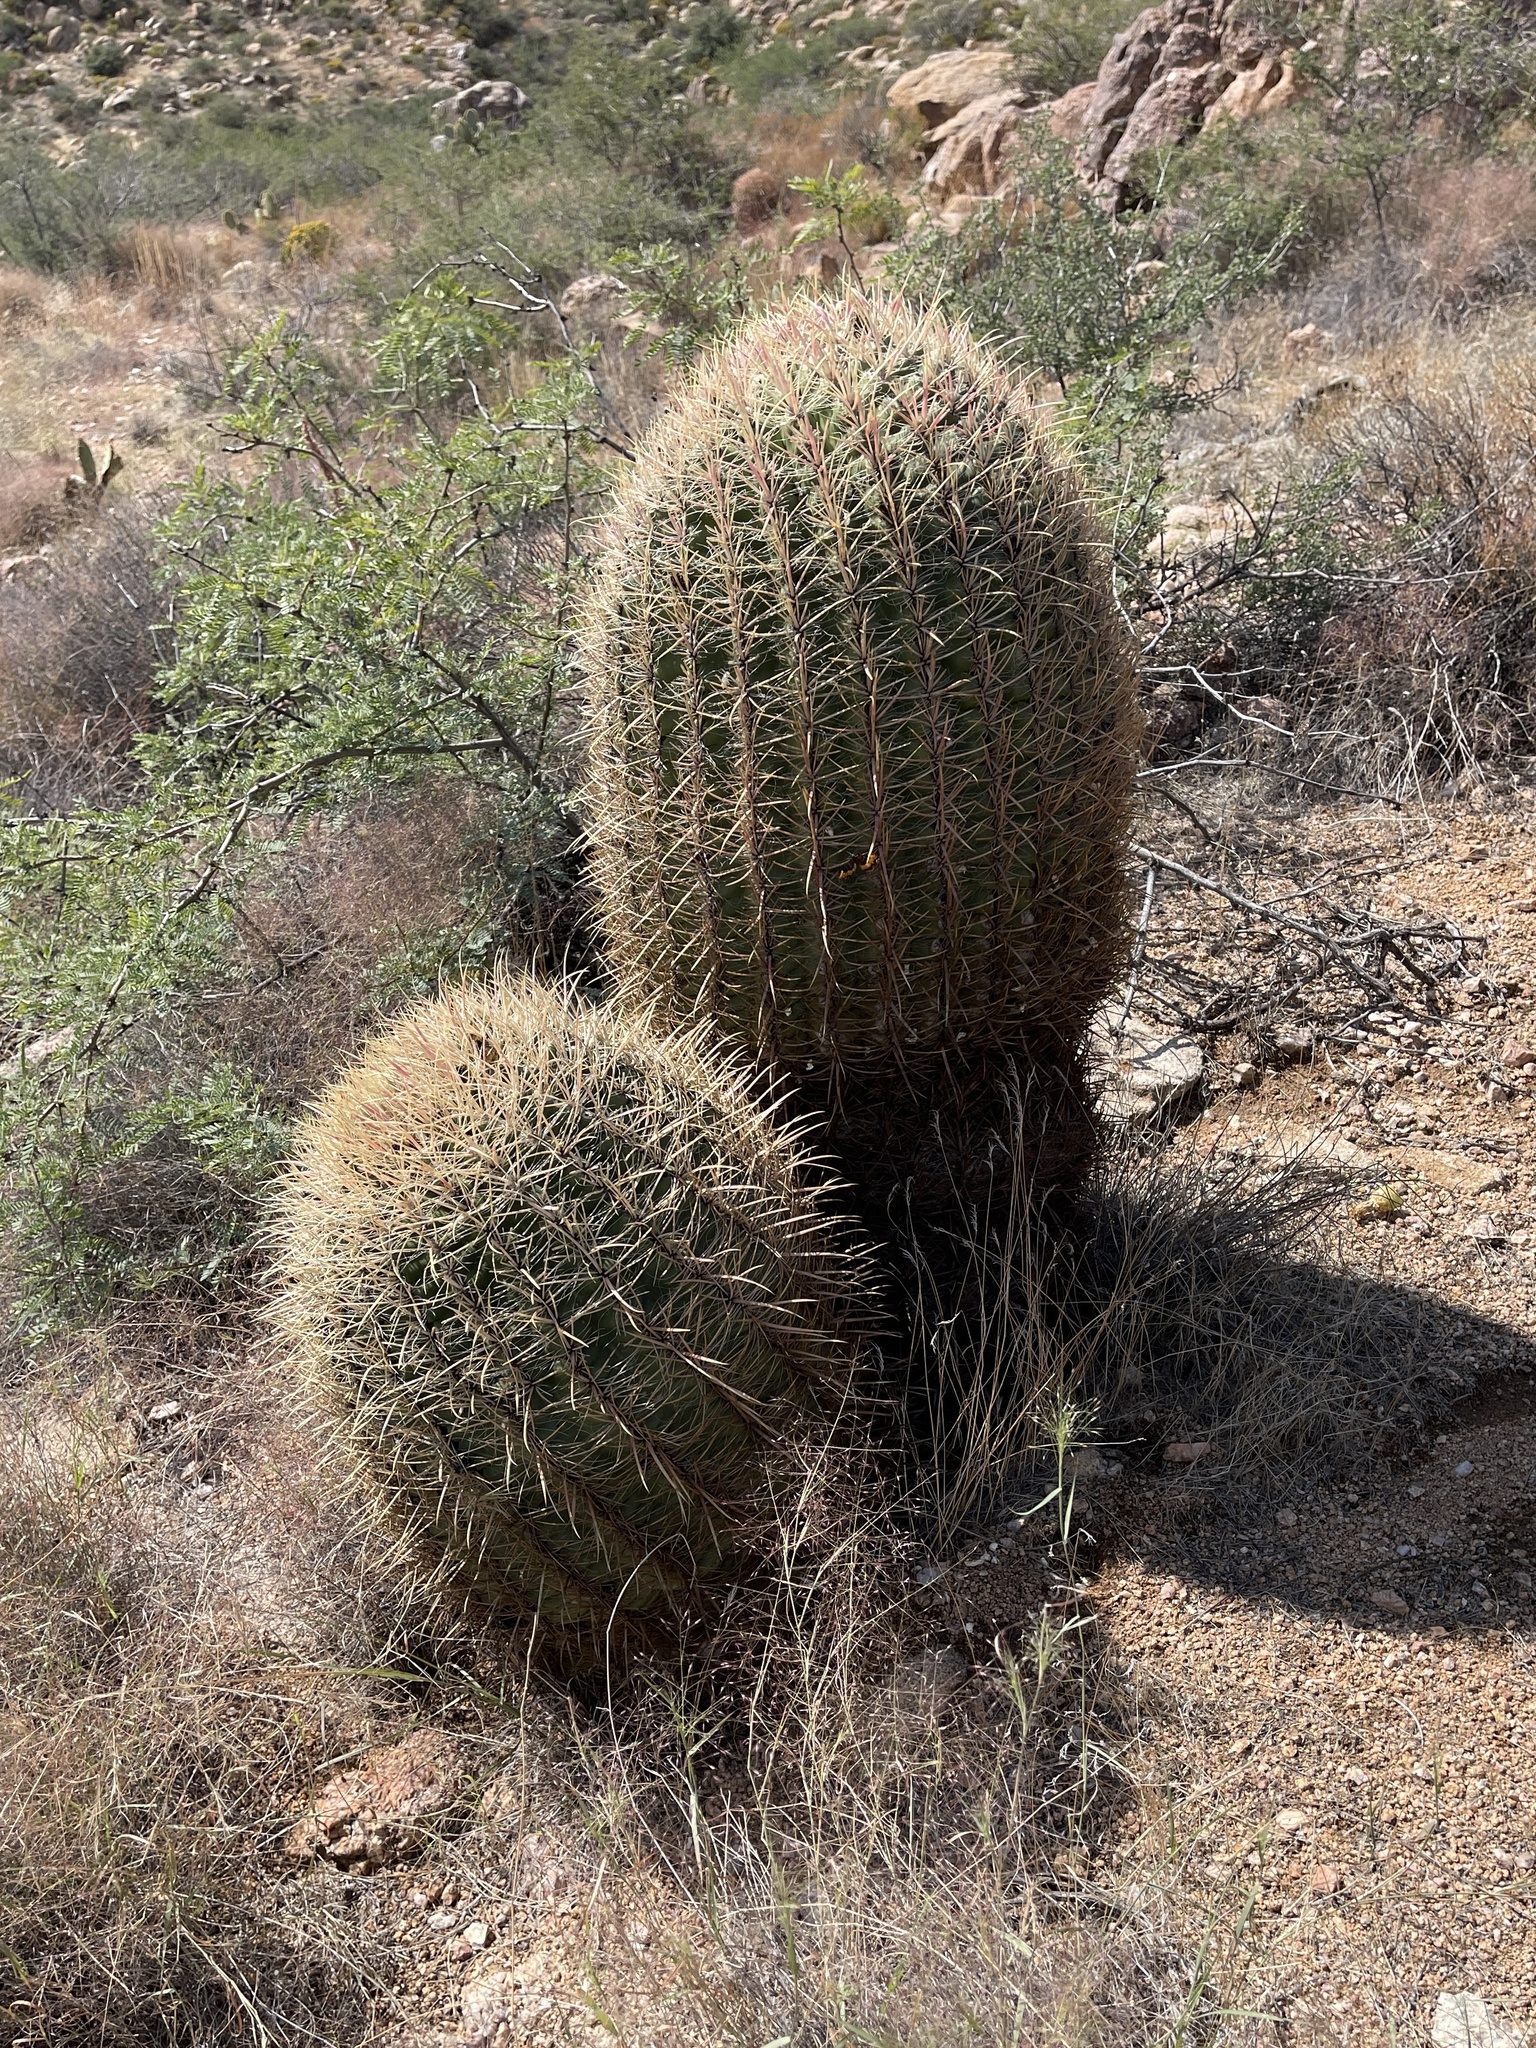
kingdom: Plantae
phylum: Tracheophyta
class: Magnoliopsida
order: Caryophyllales
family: Cactaceae
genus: Ferocactus
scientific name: Ferocactus cylindraceus
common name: California barrel cactus
